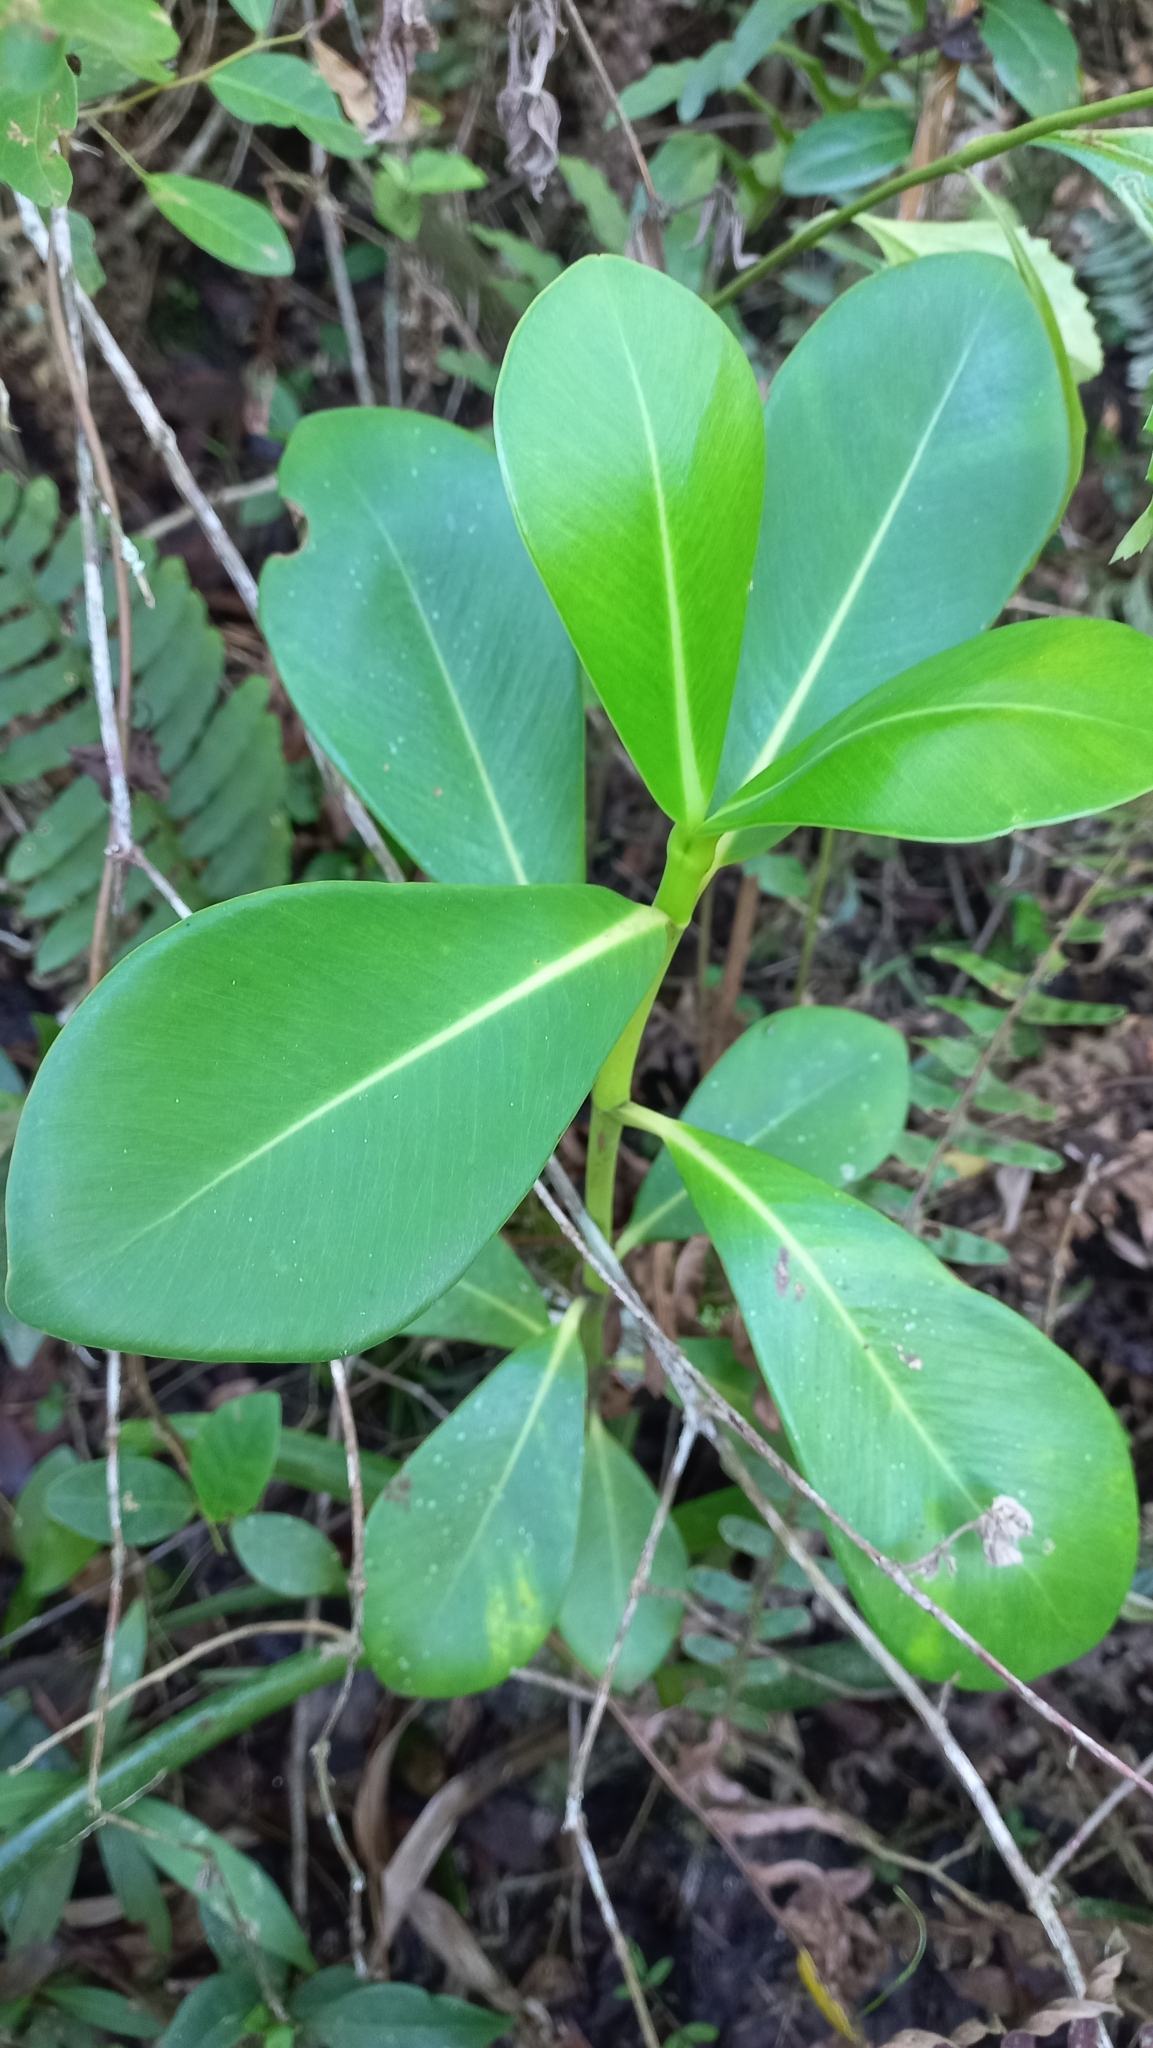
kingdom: Plantae
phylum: Tracheophyta
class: Magnoliopsida
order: Malpighiales
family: Clusiaceae
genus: Clusia
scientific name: Clusia criuva
